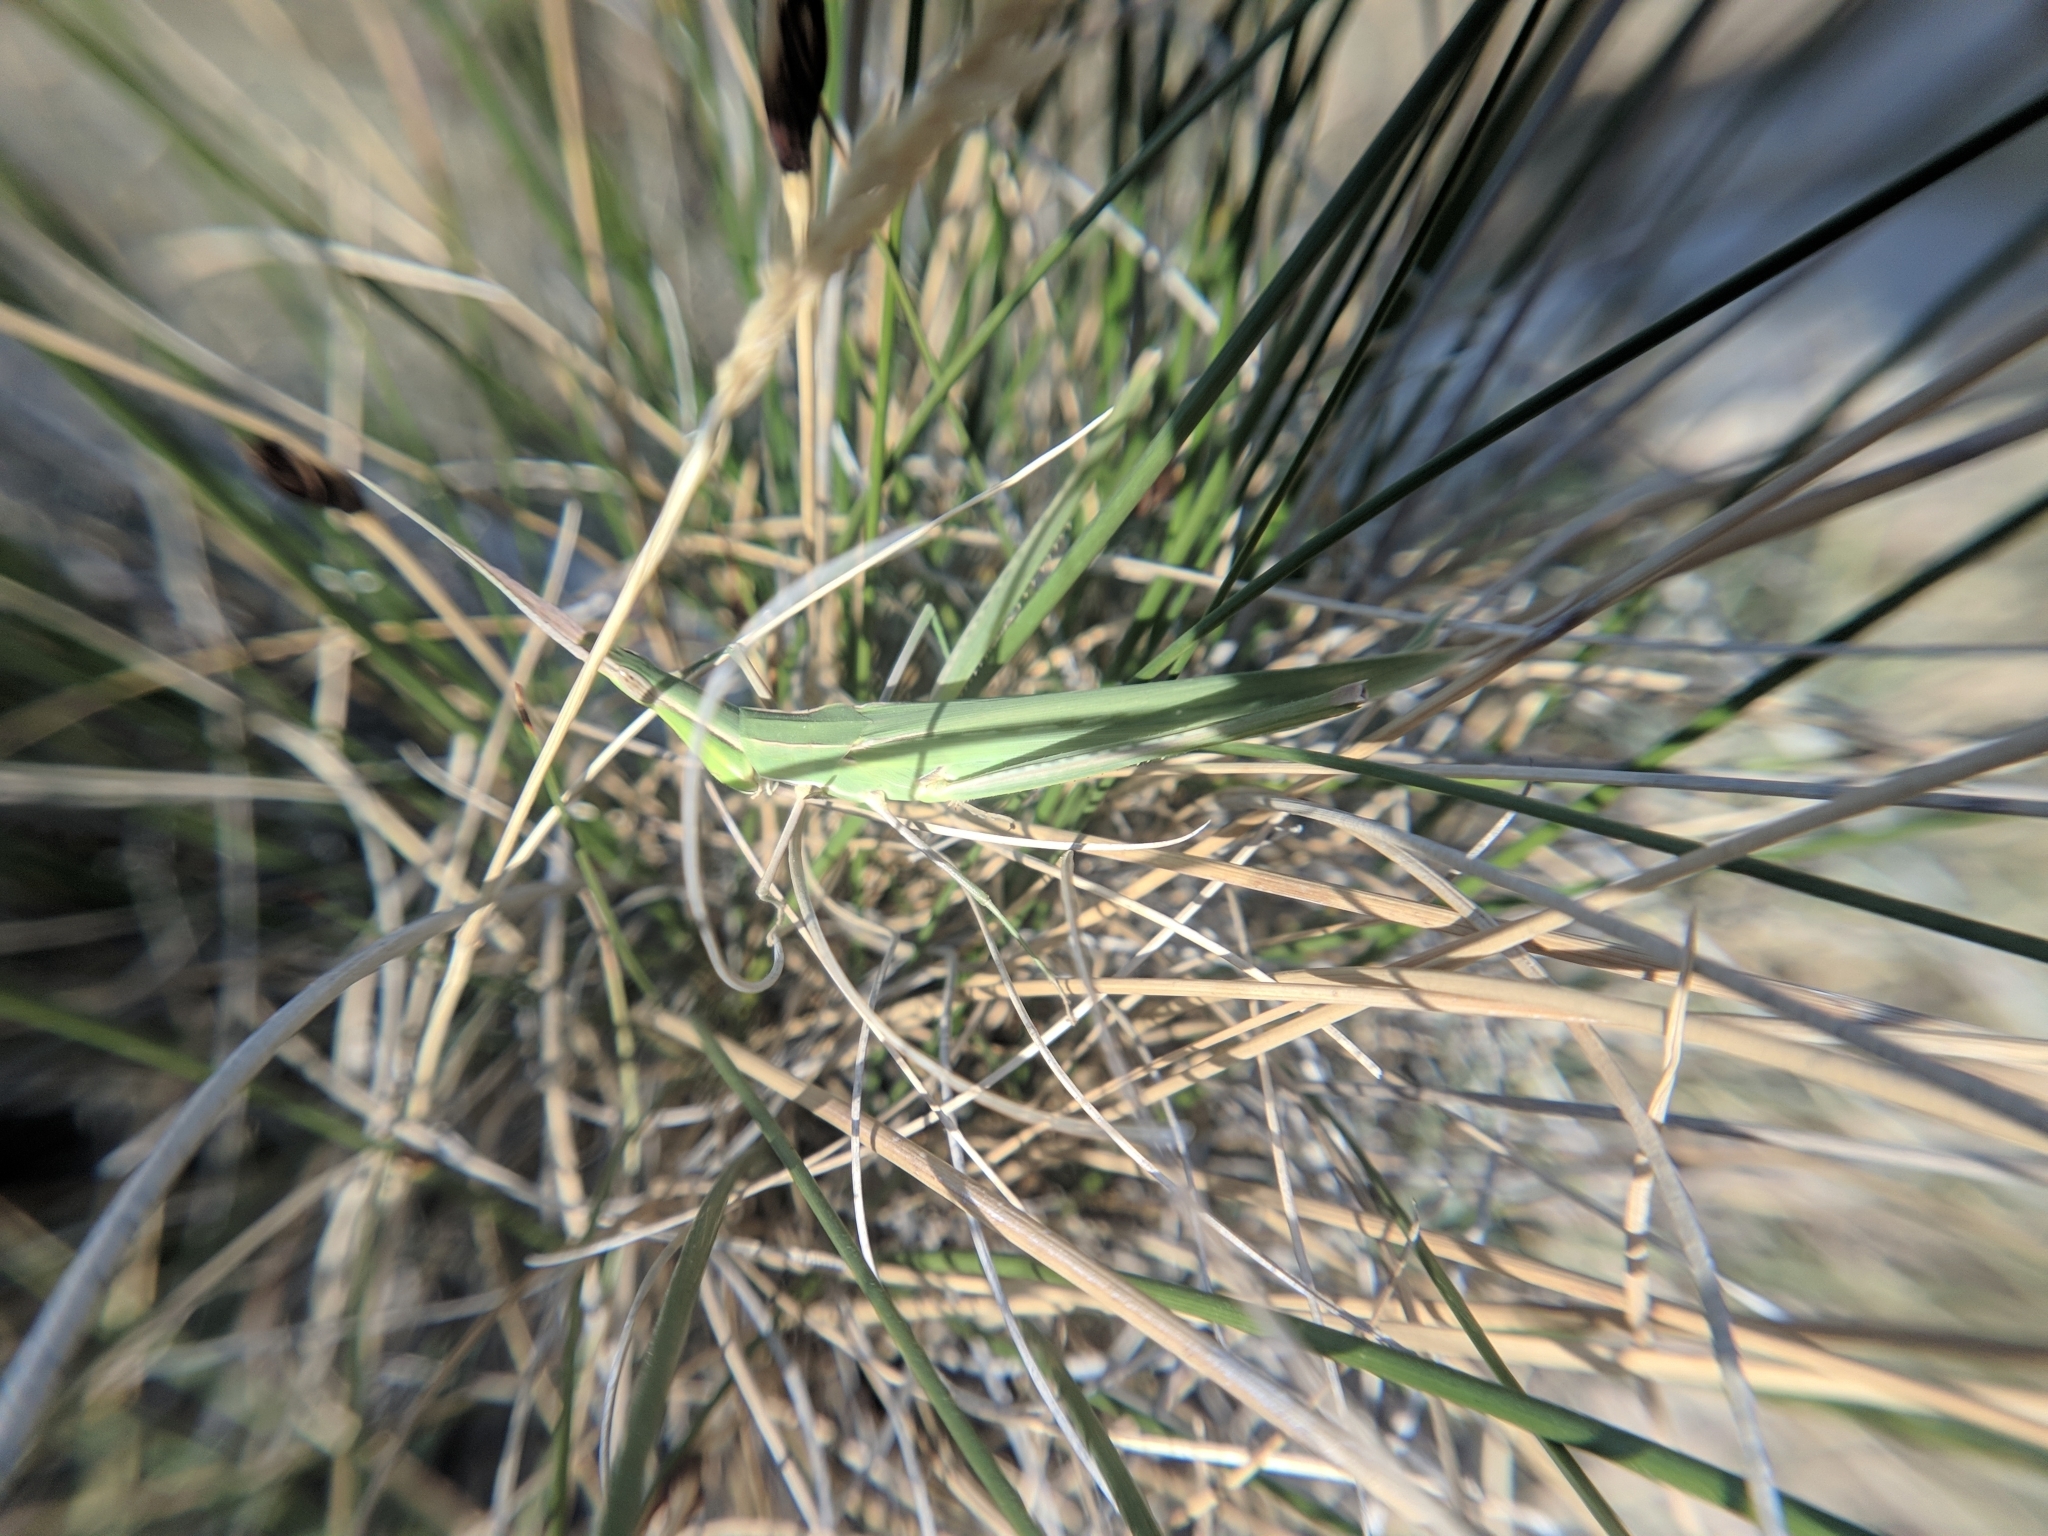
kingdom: Animalia
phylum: Arthropoda
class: Insecta
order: Orthoptera
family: Acrididae
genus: Acrida
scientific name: Acrida ungarica
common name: Common cone-headed grasshopper
